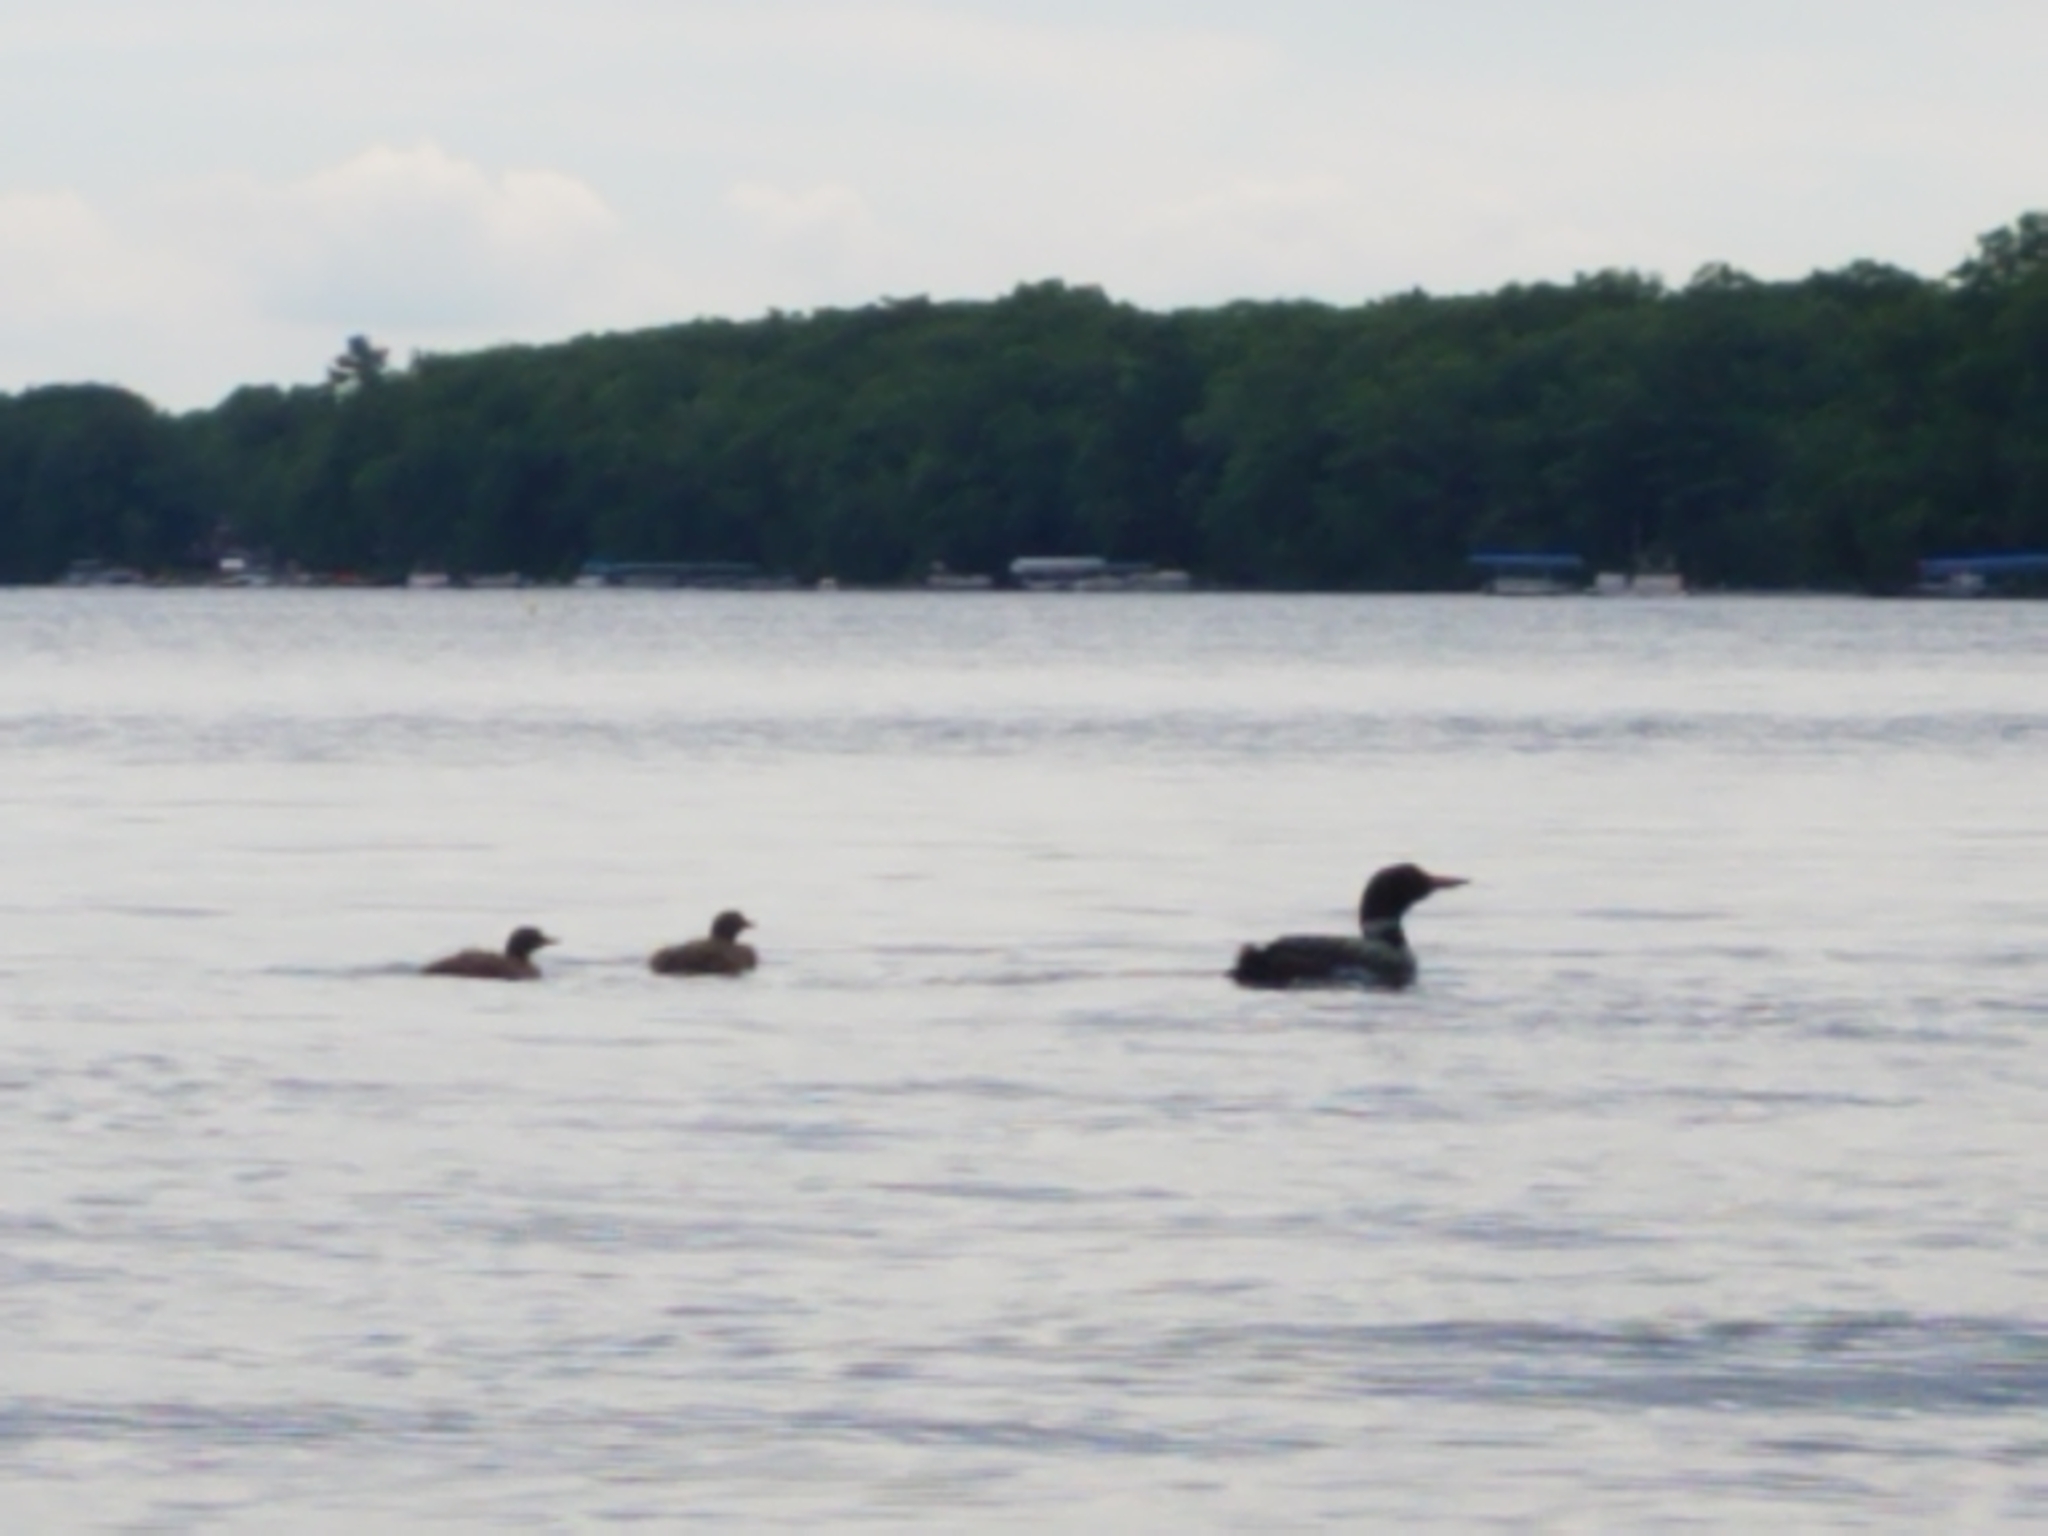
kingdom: Animalia
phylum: Chordata
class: Aves
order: Gaviiformes
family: Gaviidae
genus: Gavia
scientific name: Gavia immer
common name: Common loon
